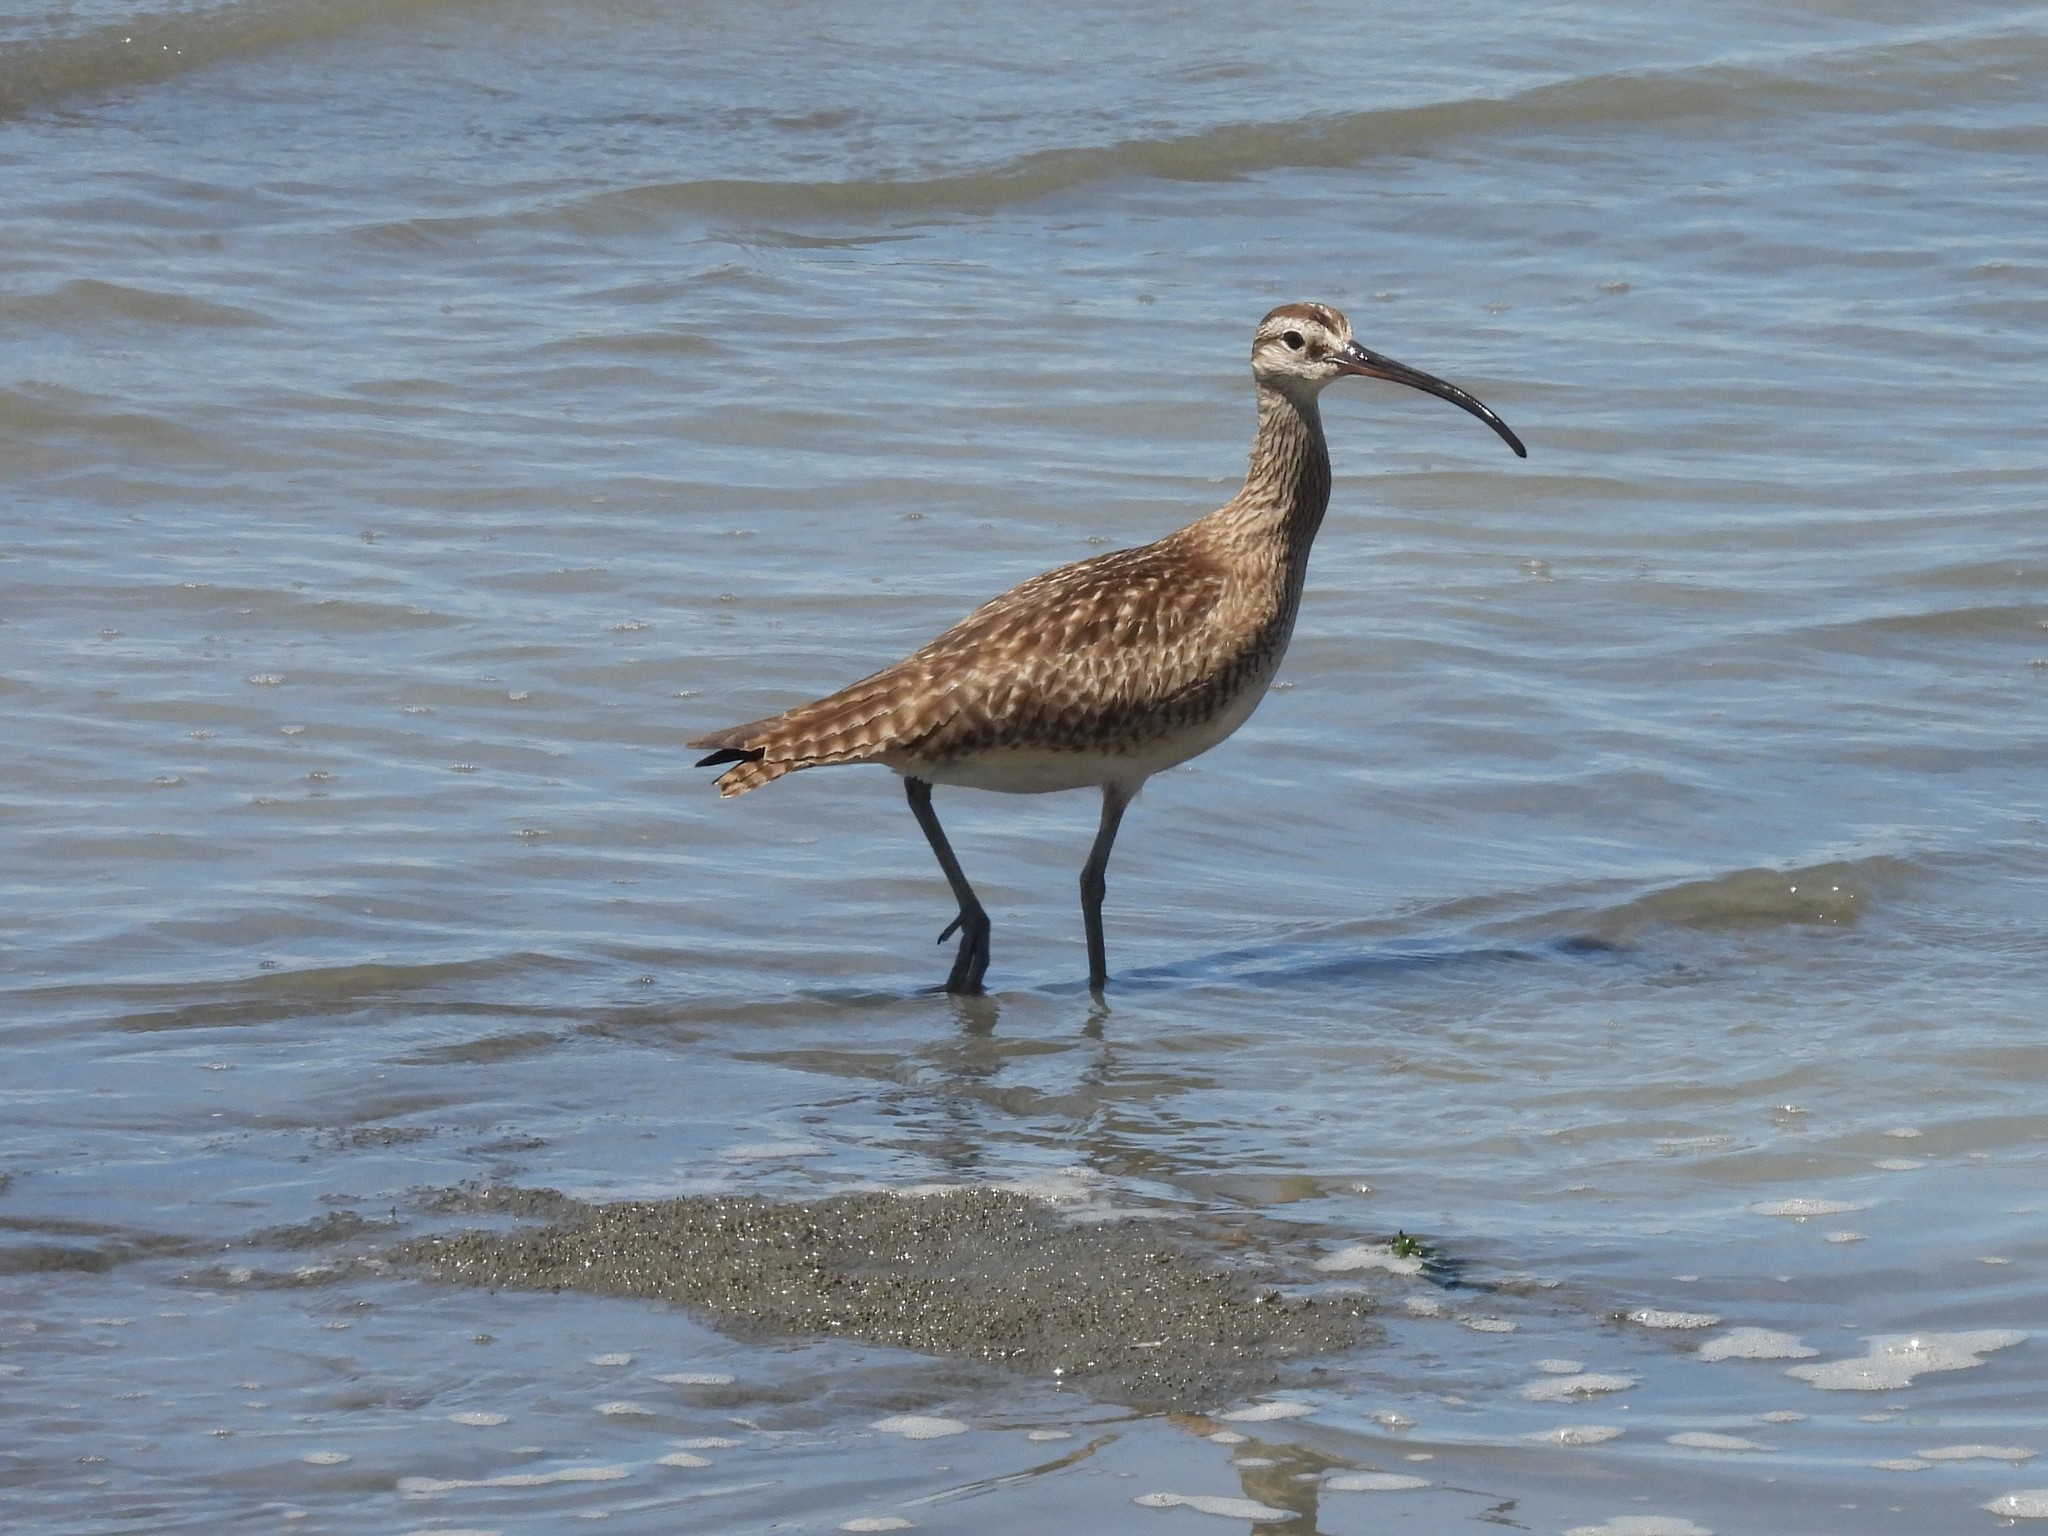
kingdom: Animalia
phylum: Chordata
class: Aves
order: Charadriiformes
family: Scolopacidae
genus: Numenius
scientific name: Numenius phaeopus
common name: Whimbrel
